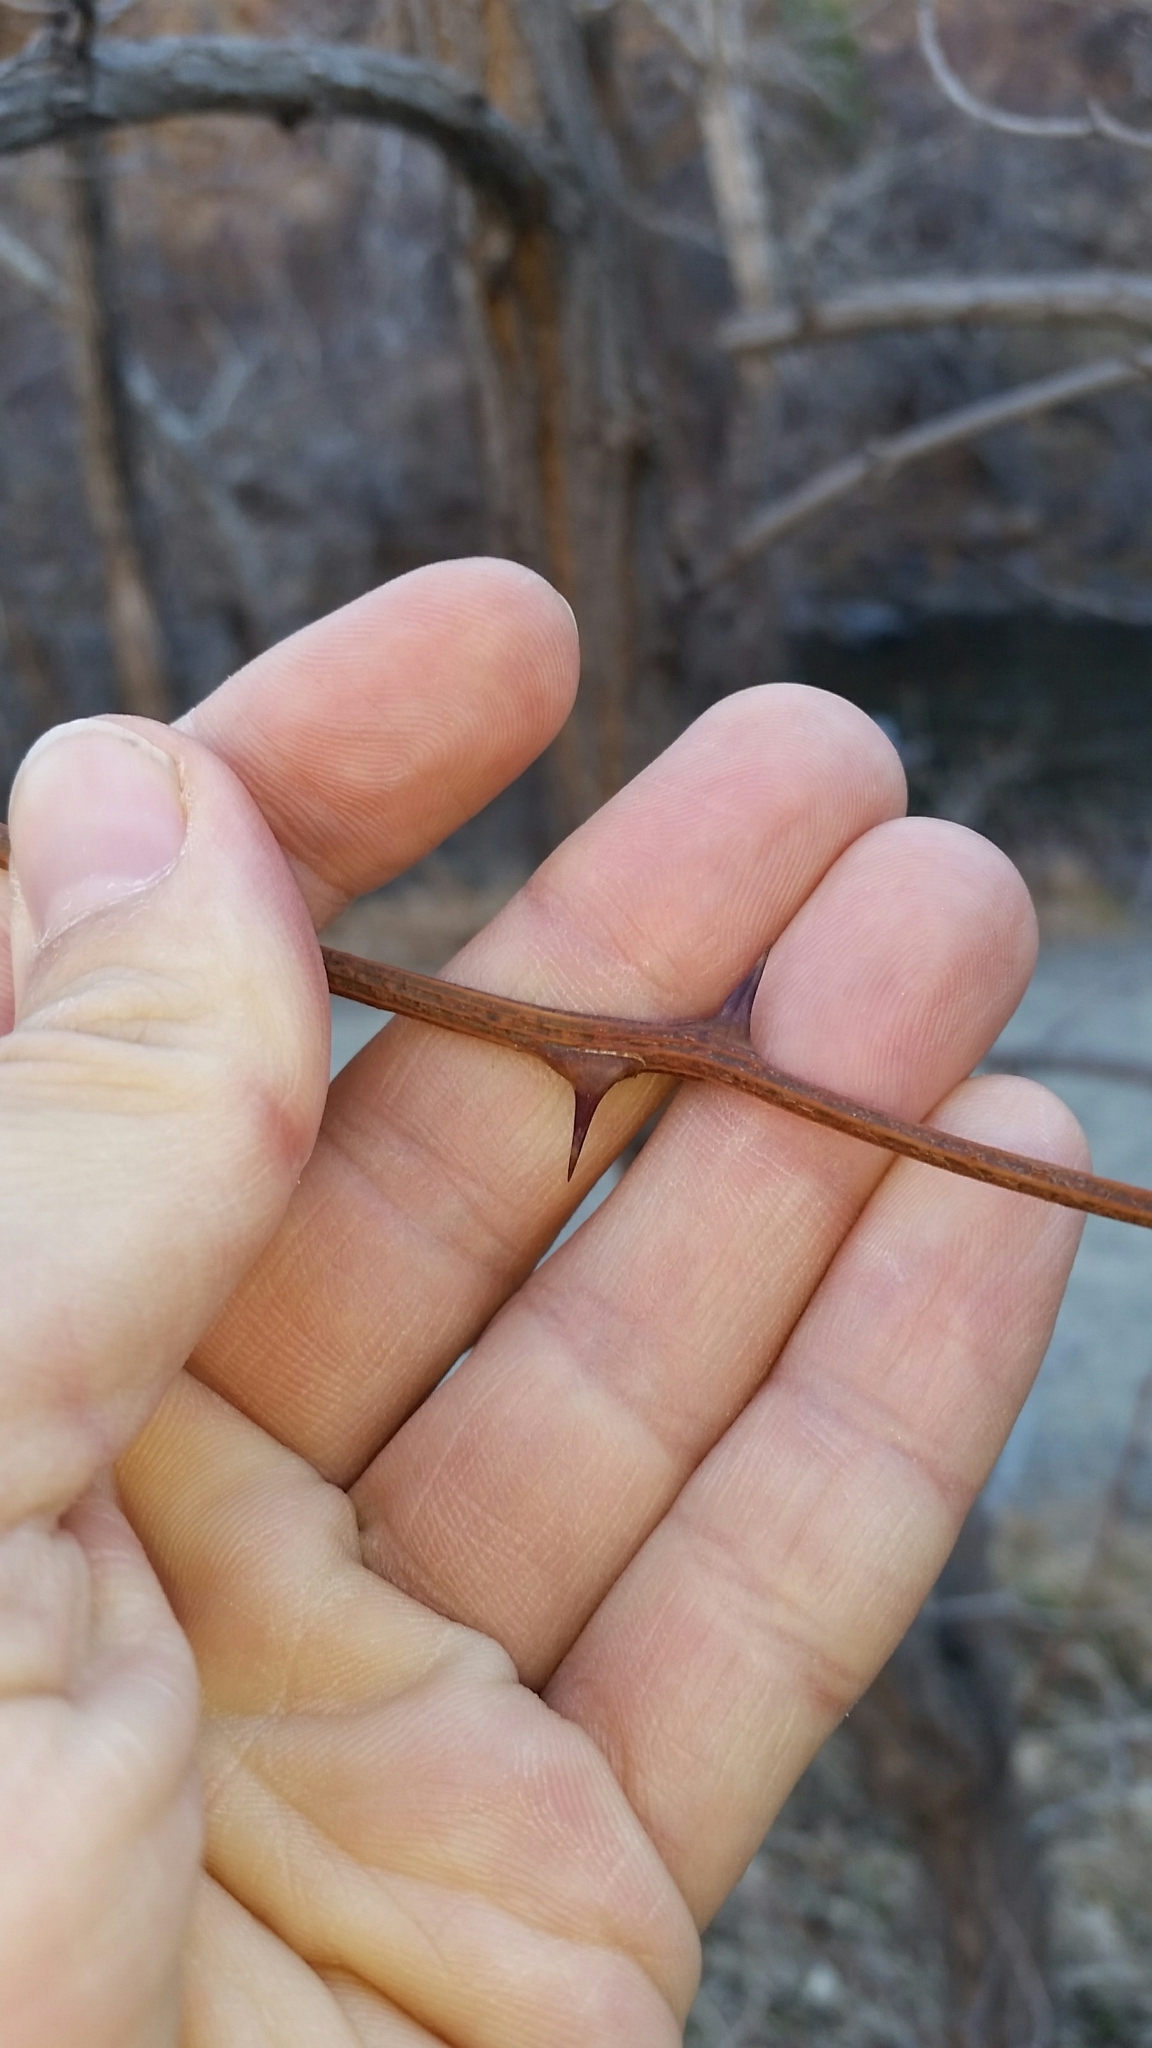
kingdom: Plantae
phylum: Tracheophyta
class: Magnoliopsida
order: Fabales
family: Fabaceae
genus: Robinia
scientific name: Robinia pseudoacacia
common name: Black locust
